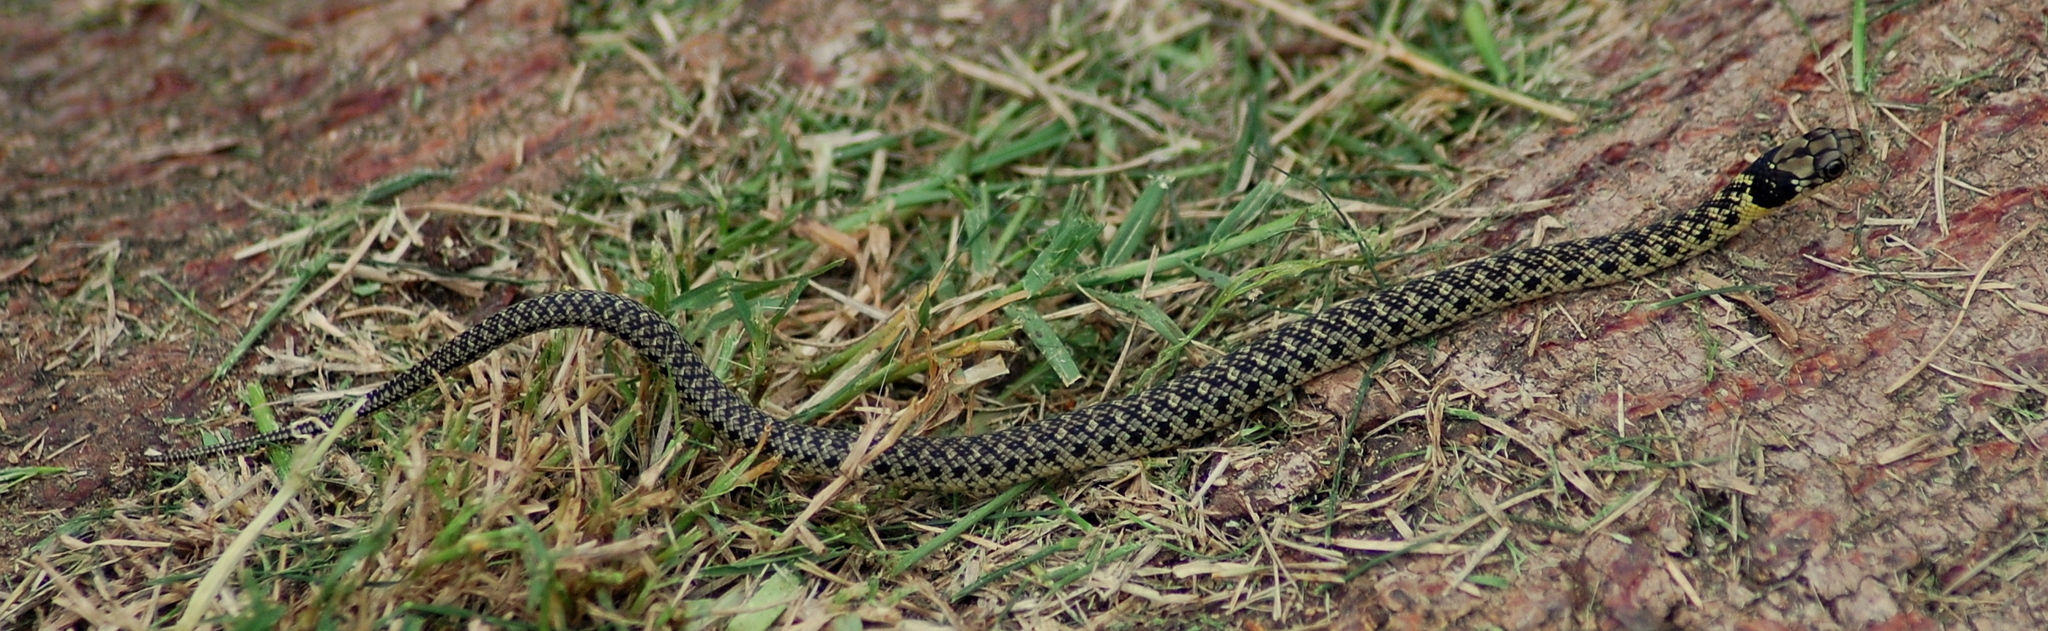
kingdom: Animalia
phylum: Chordata
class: Squamata
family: Colubridae
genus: Erythrolamprus
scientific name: Erythrolamprus poecilogyrus
